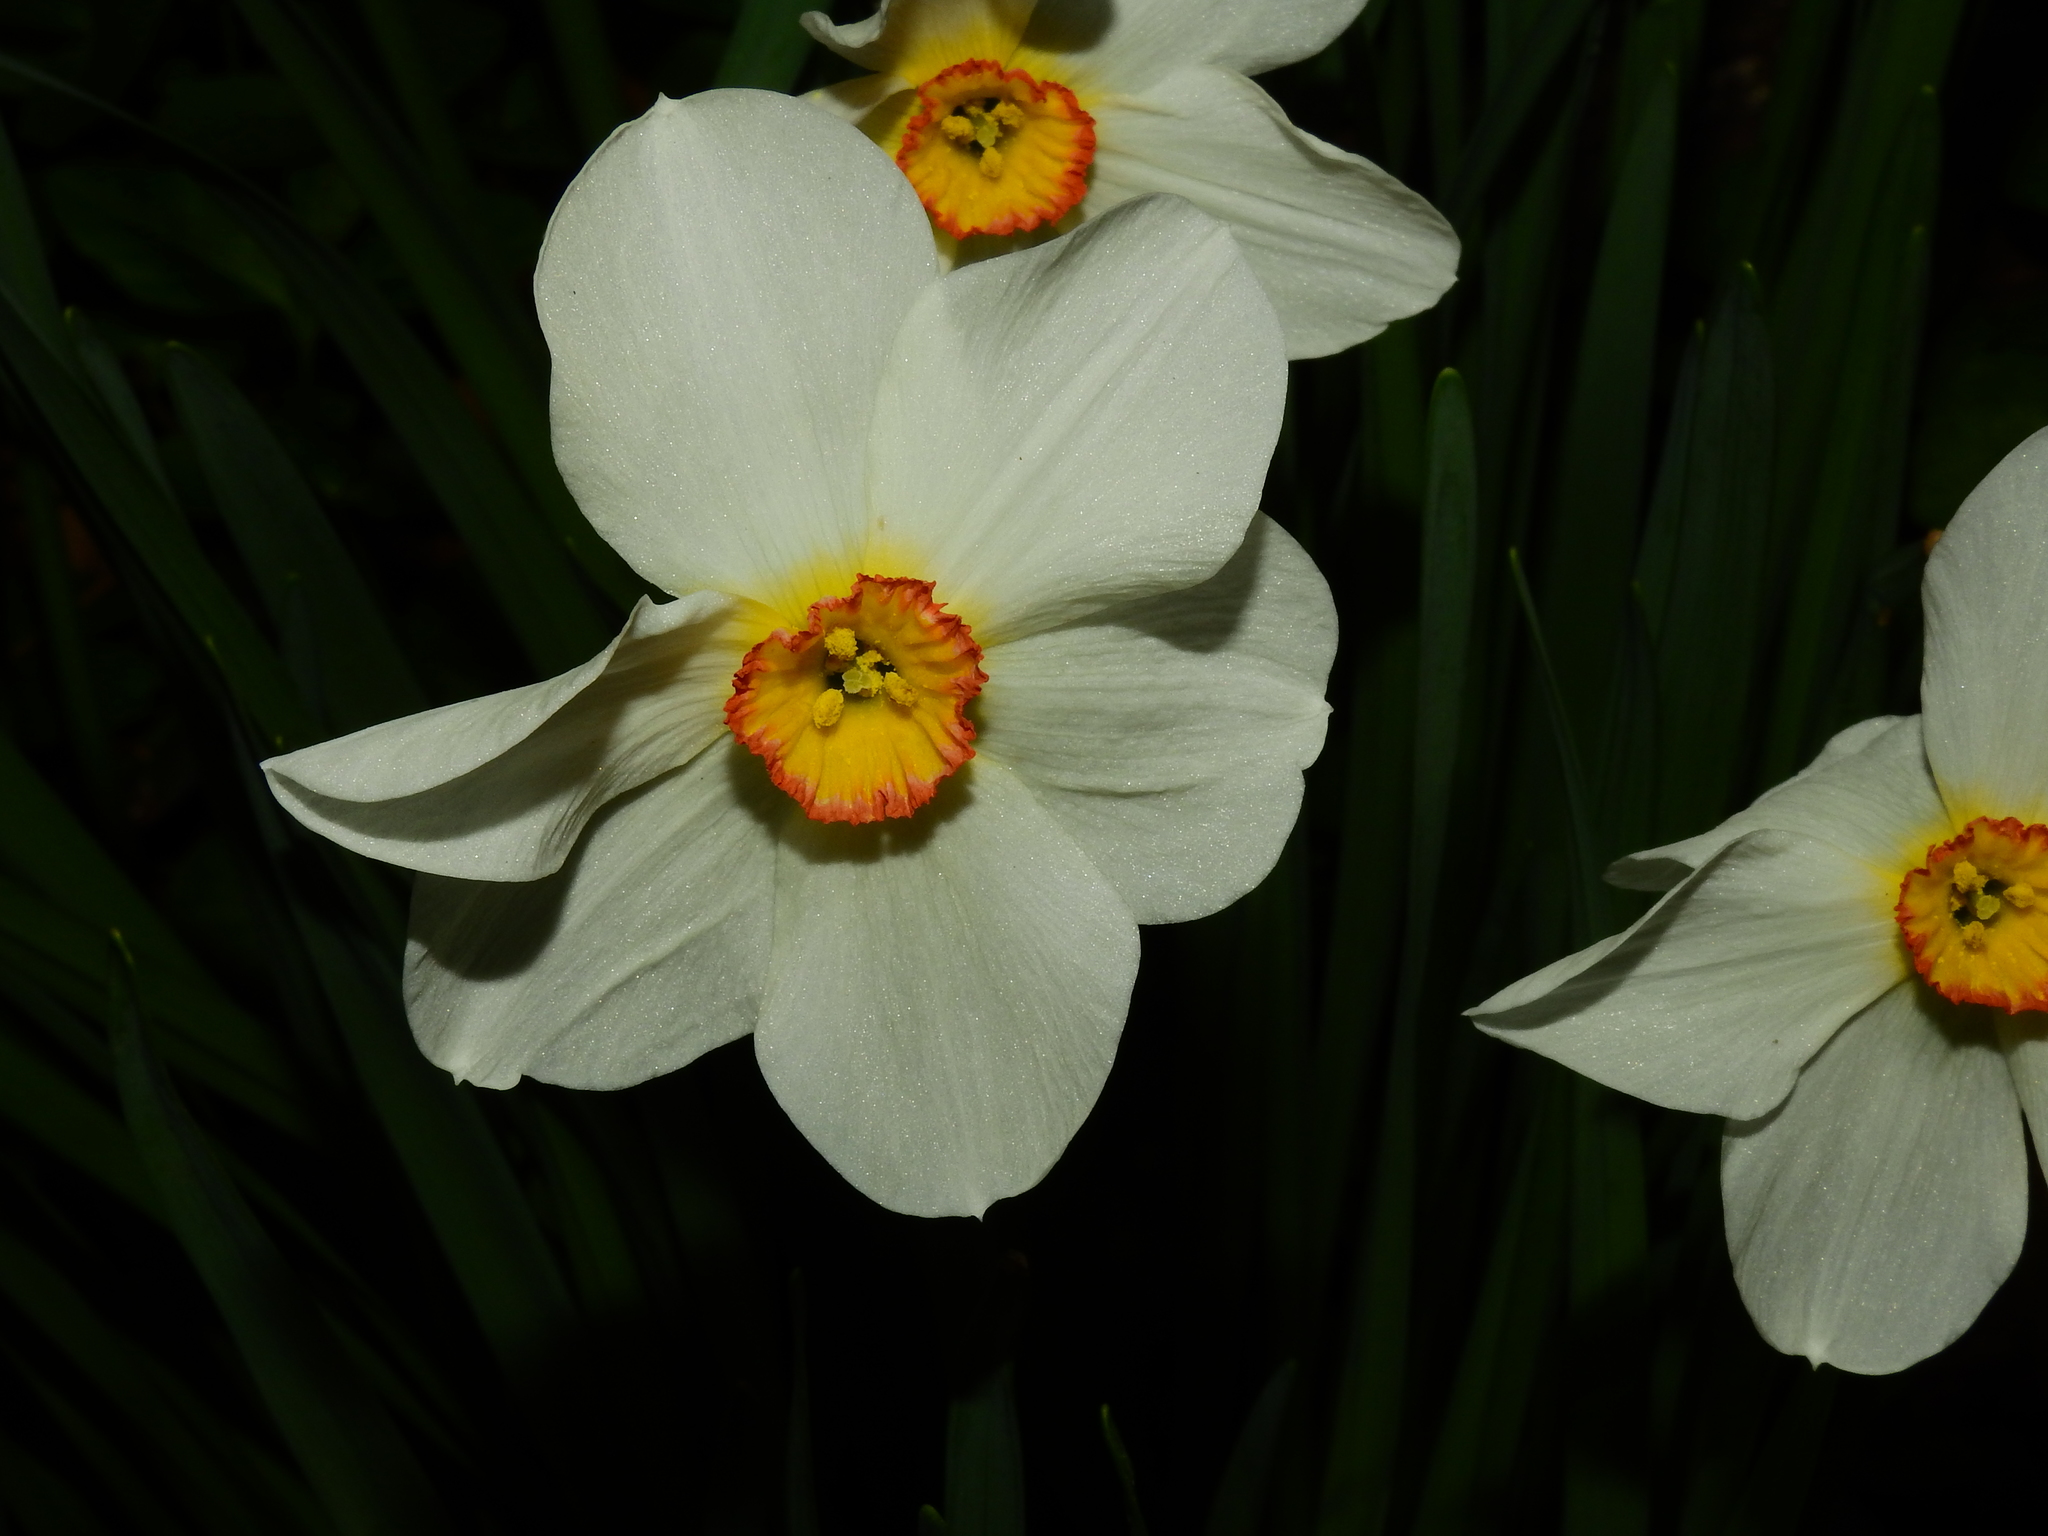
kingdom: Plantae
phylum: Tracheophyta
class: Liliopsida
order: Asparagales
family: Amaryllidaceae
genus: Narcissus
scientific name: Narcissus poeticus
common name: Pheasant's-eye daffodil
